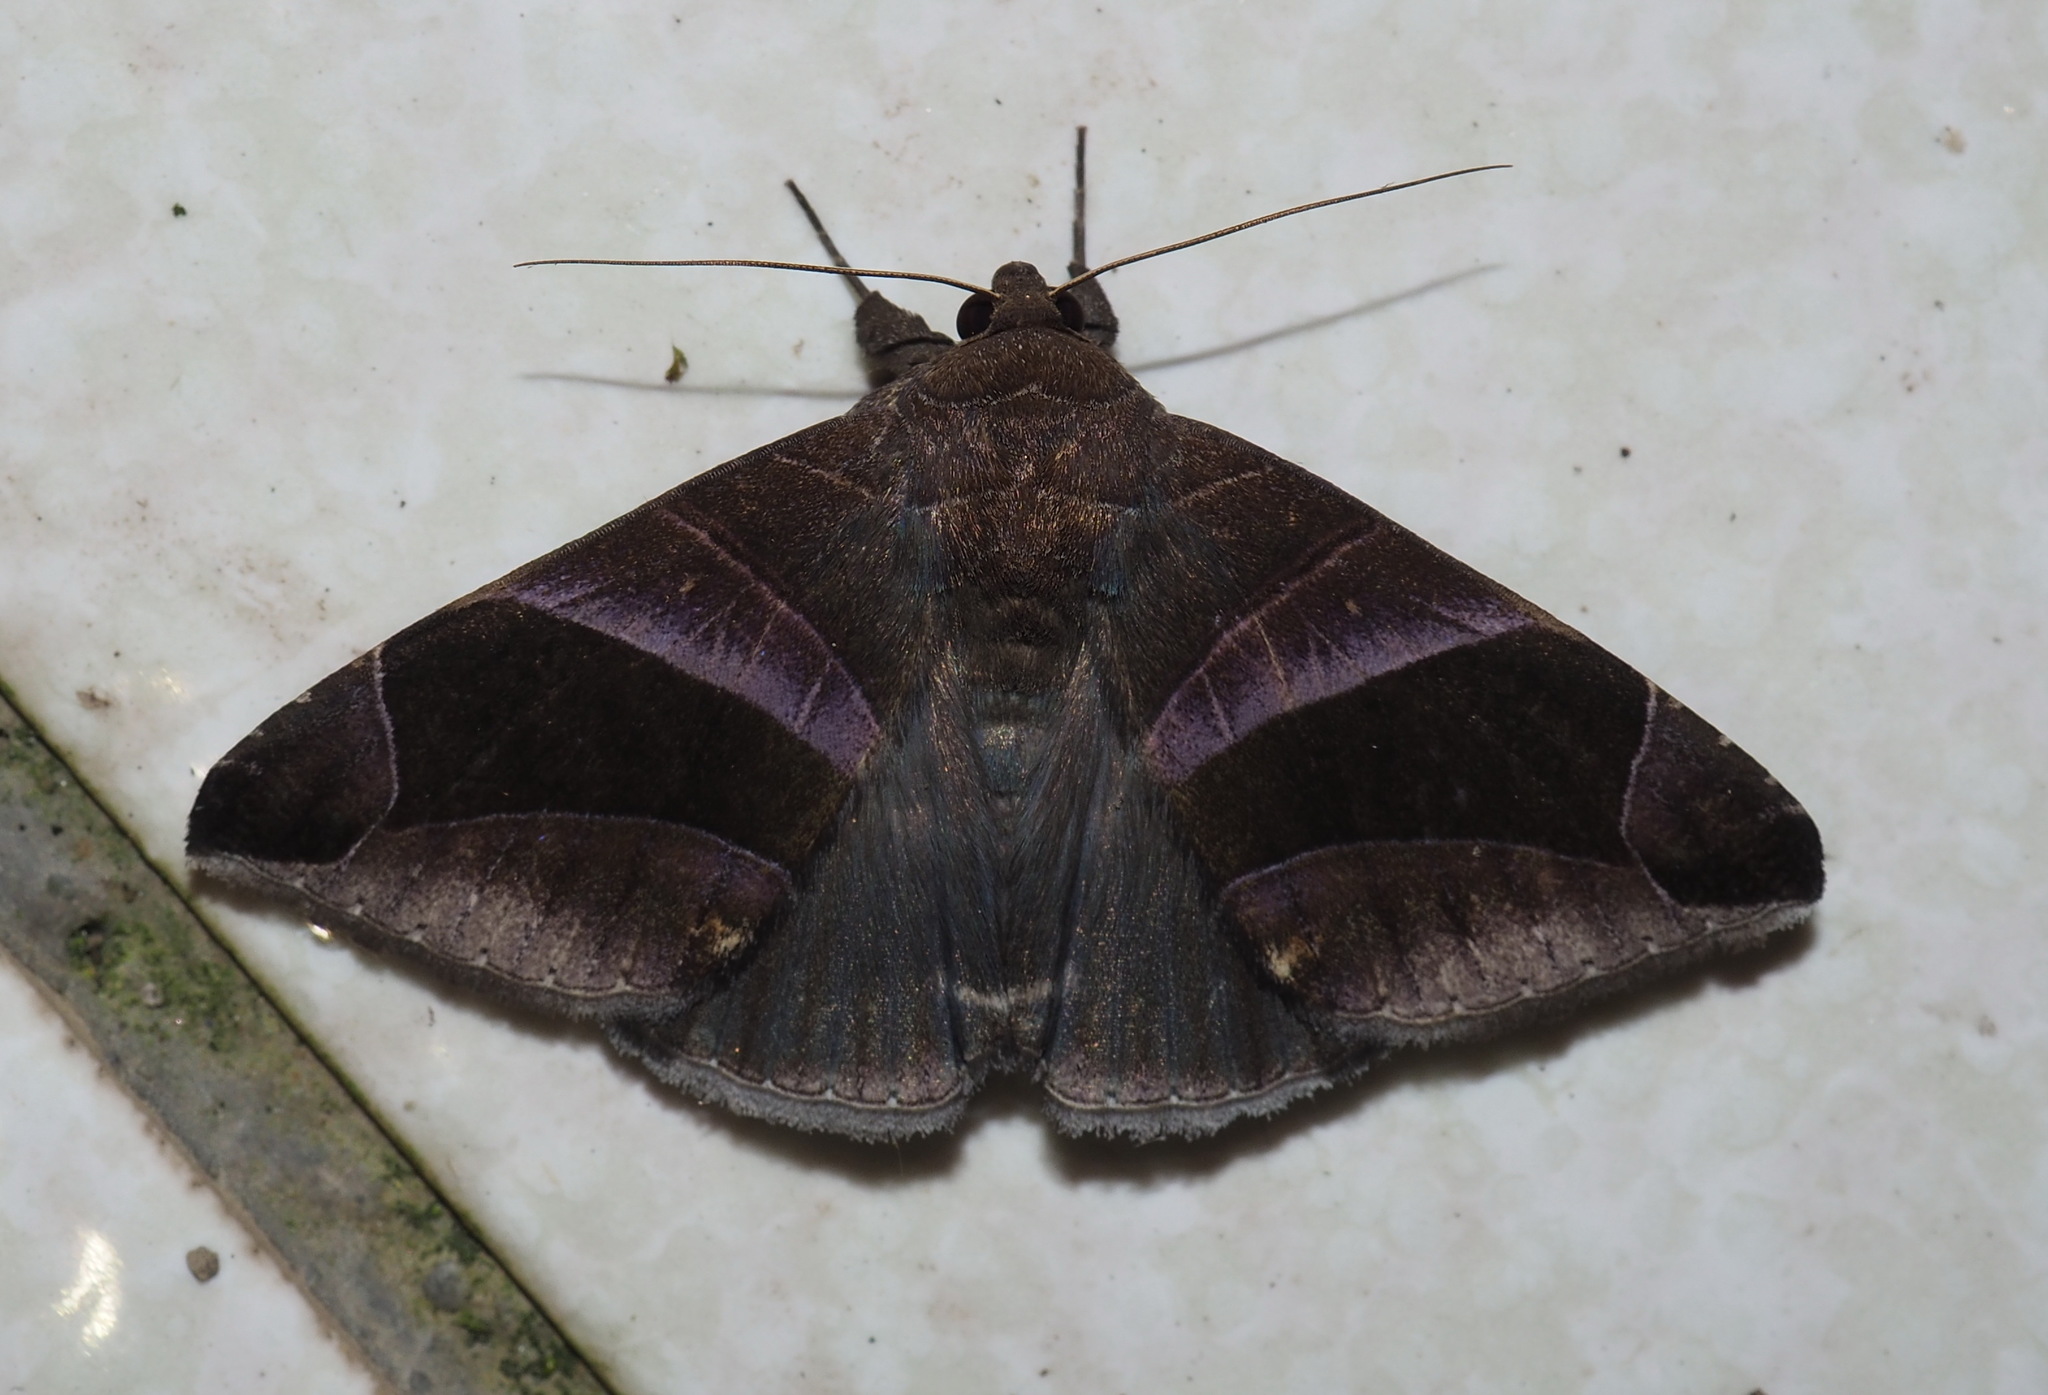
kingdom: Animalia
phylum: Arthropoda
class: Insecta
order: Lepidoptera
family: Erebidae
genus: Bastilla
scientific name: Bastilla acuta
